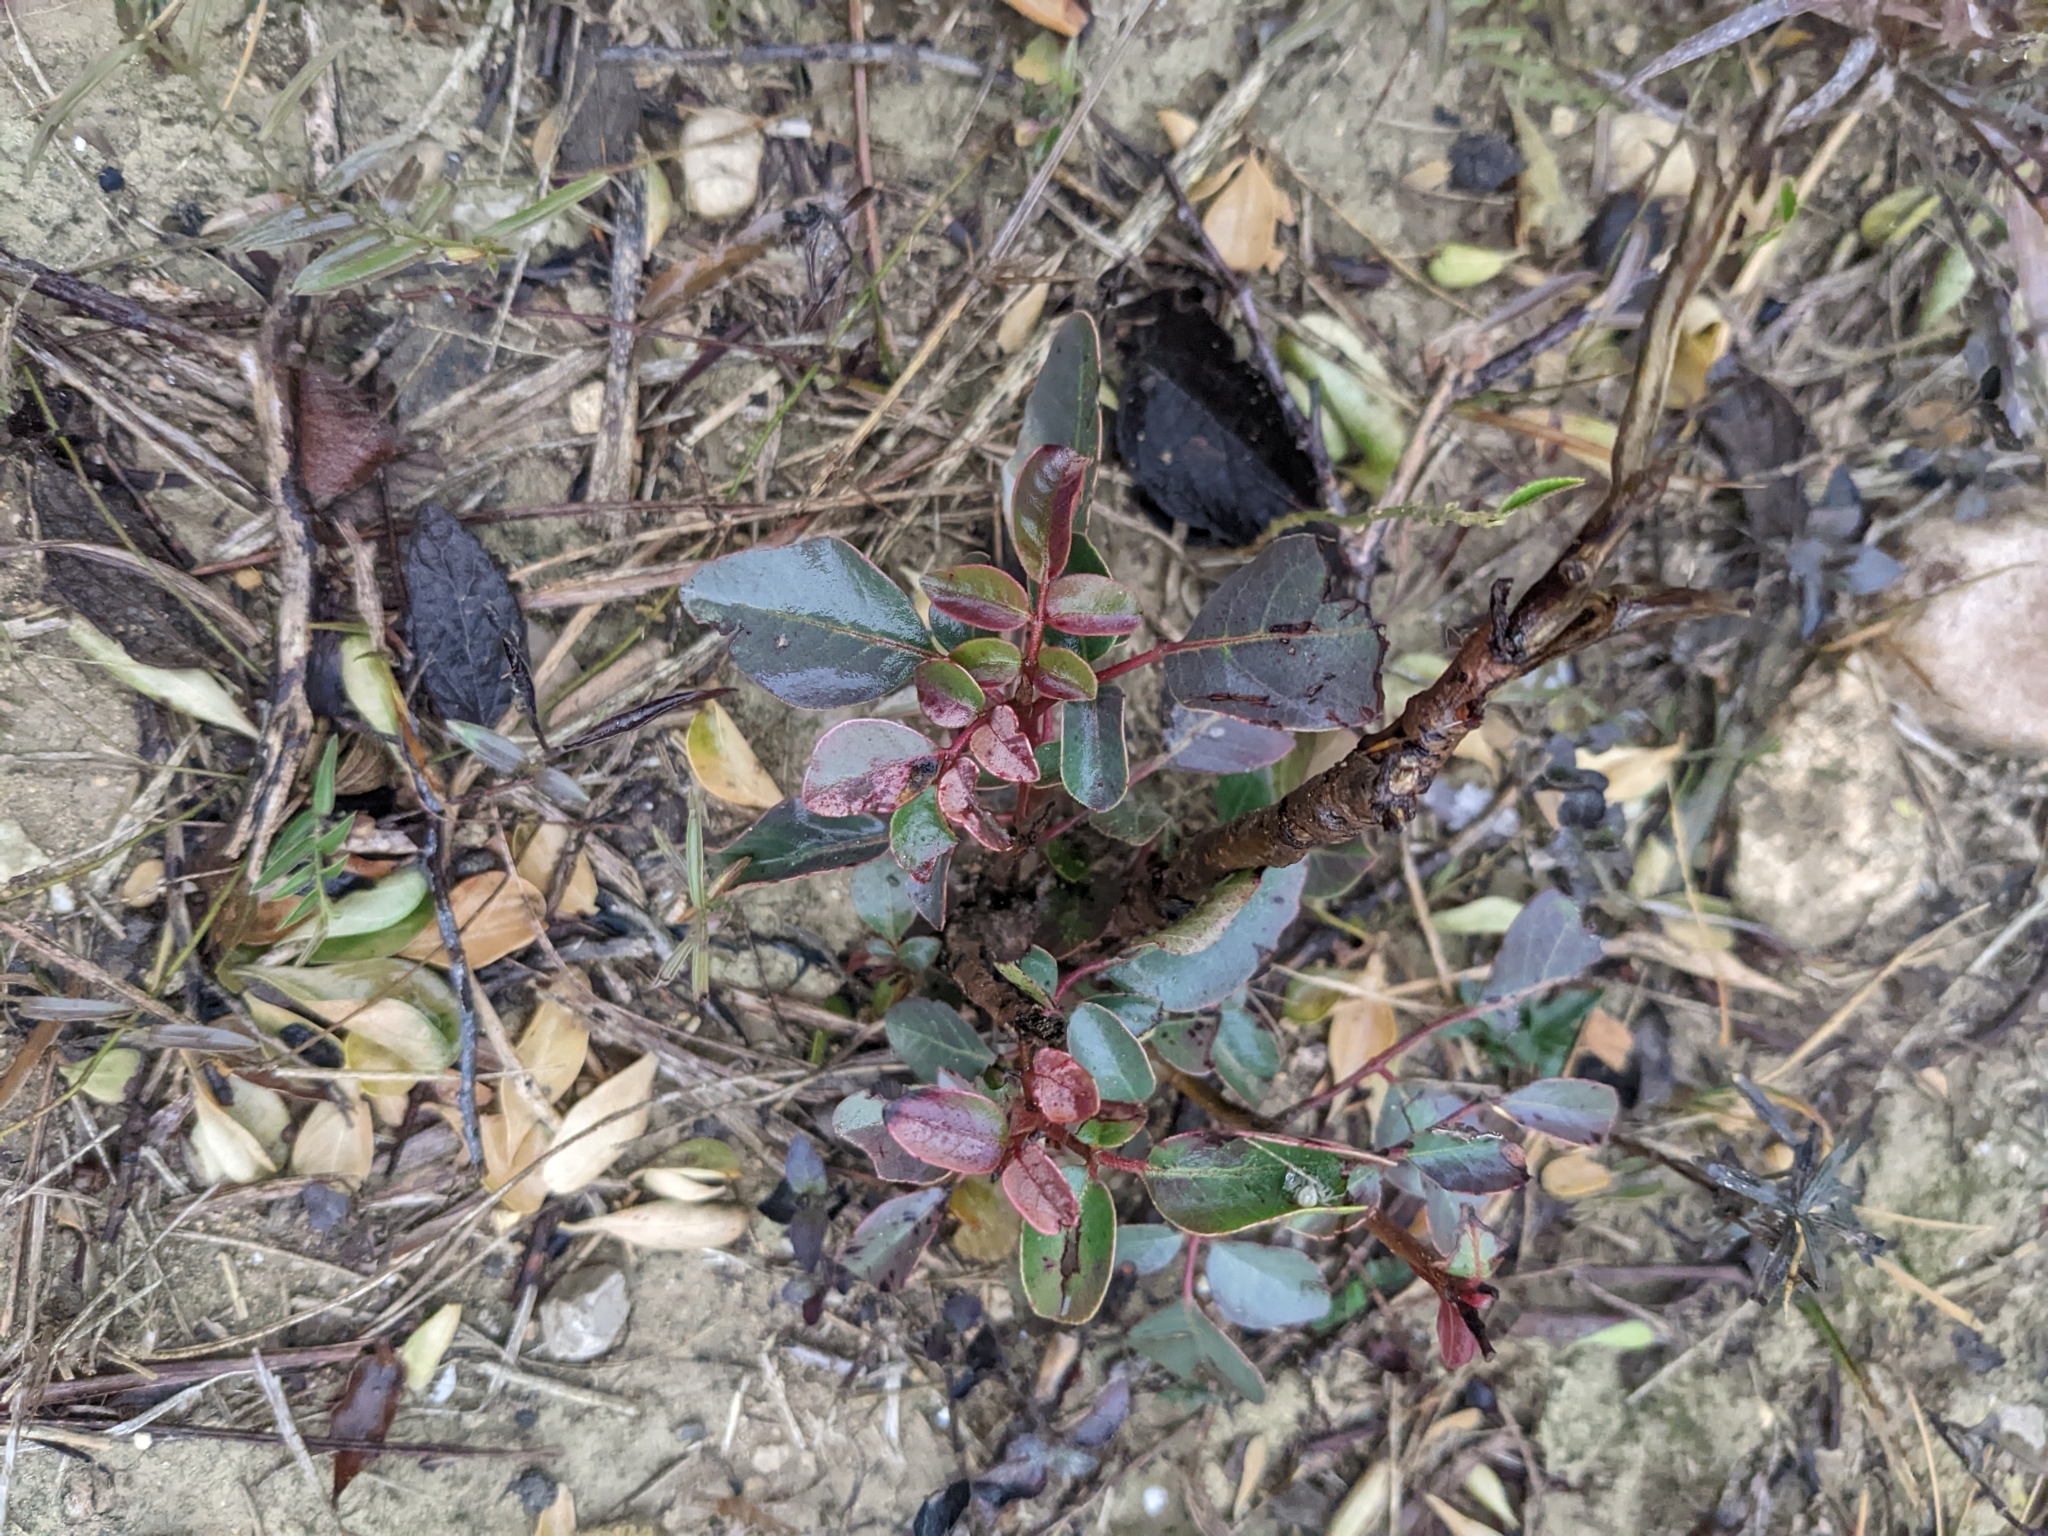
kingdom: Plantae
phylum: Tracheophyta
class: Magnoliopsida
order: Sapindales
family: Anacardiaceae
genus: Rhus
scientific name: Rhus virens
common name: Evergreen sumac
